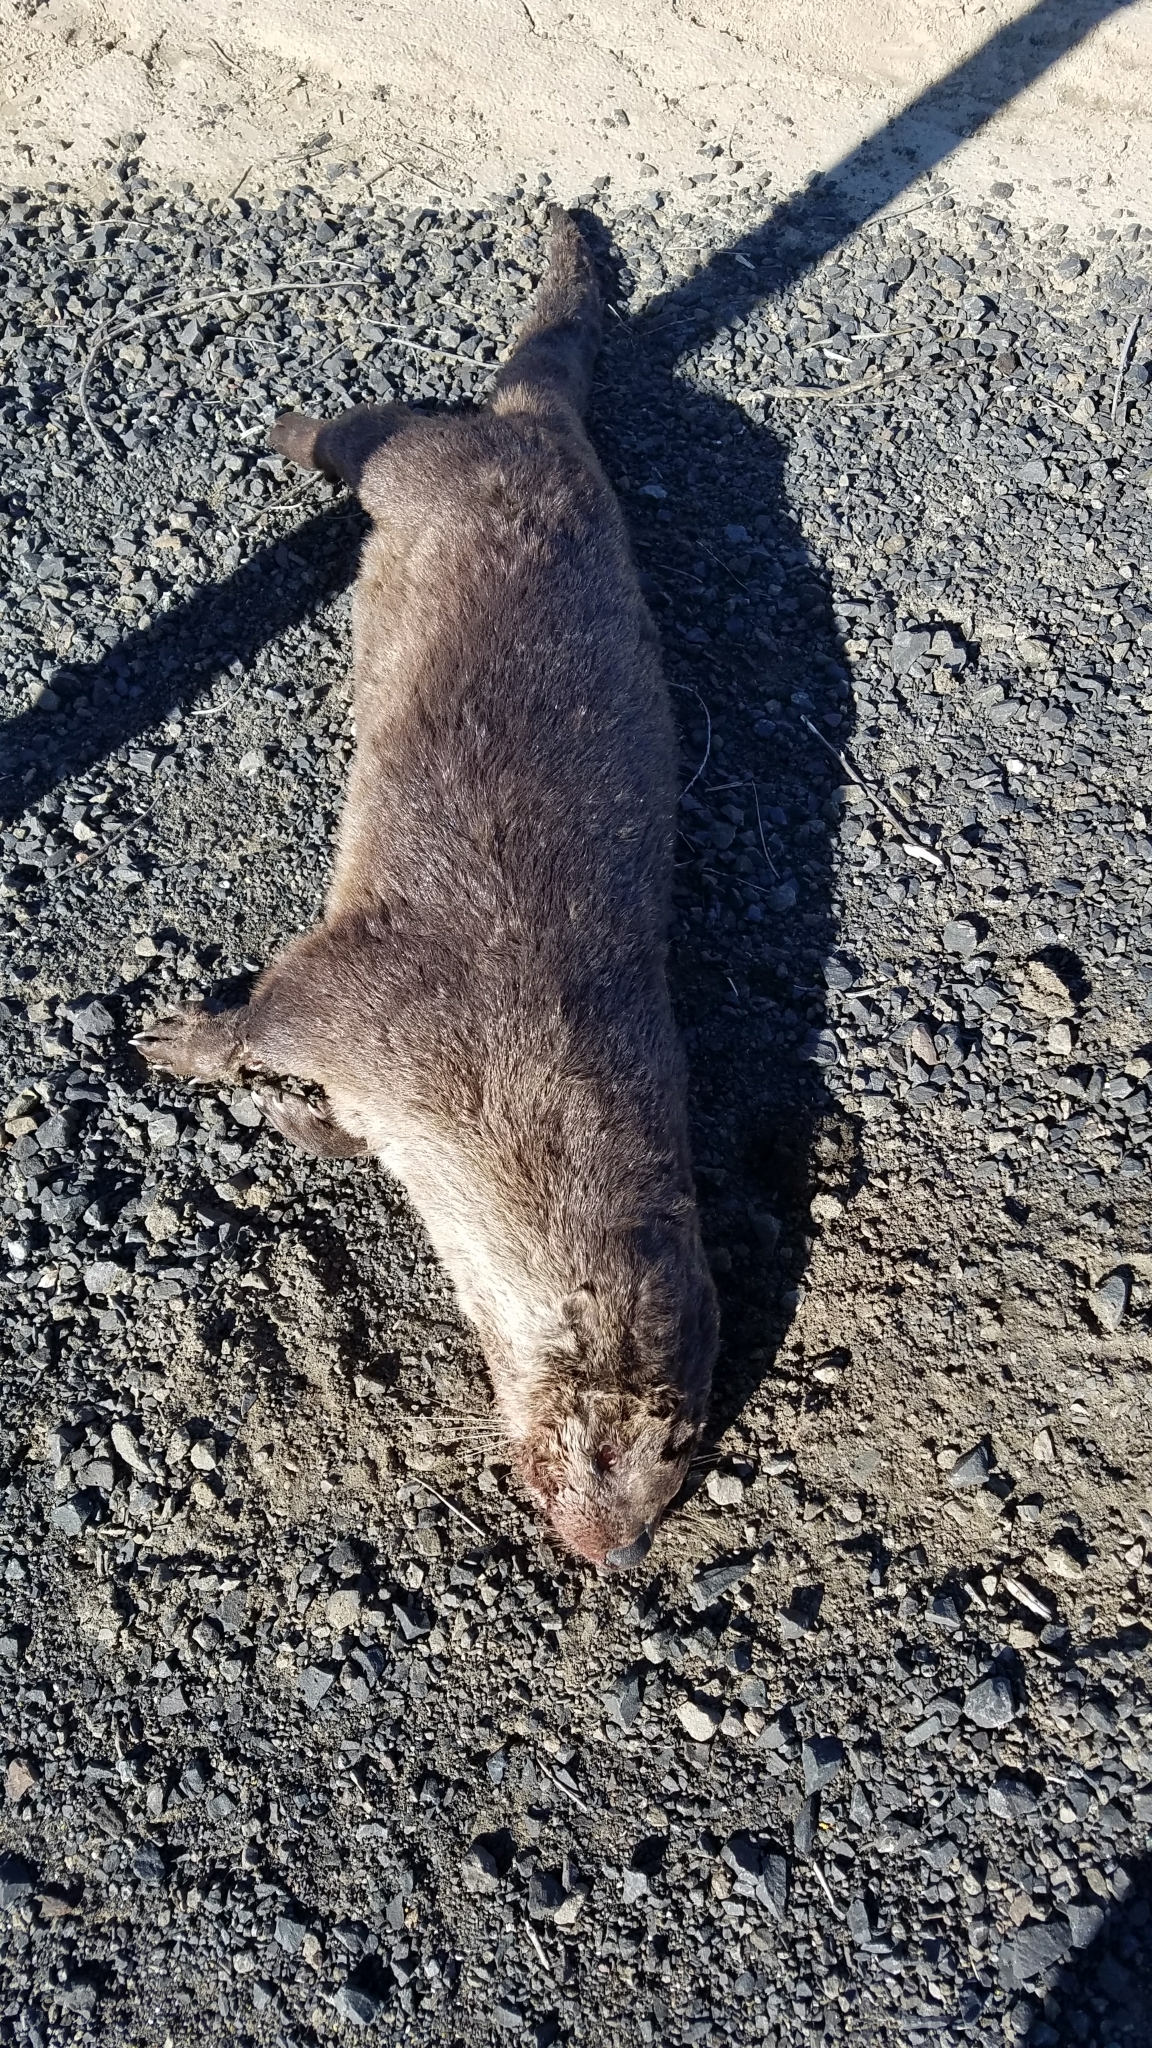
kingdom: Animalia
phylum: Chordata
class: Mammalia
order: Carnivora
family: Mustelidae
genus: Lontra
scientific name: Lontra canadensis
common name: North american river otter
